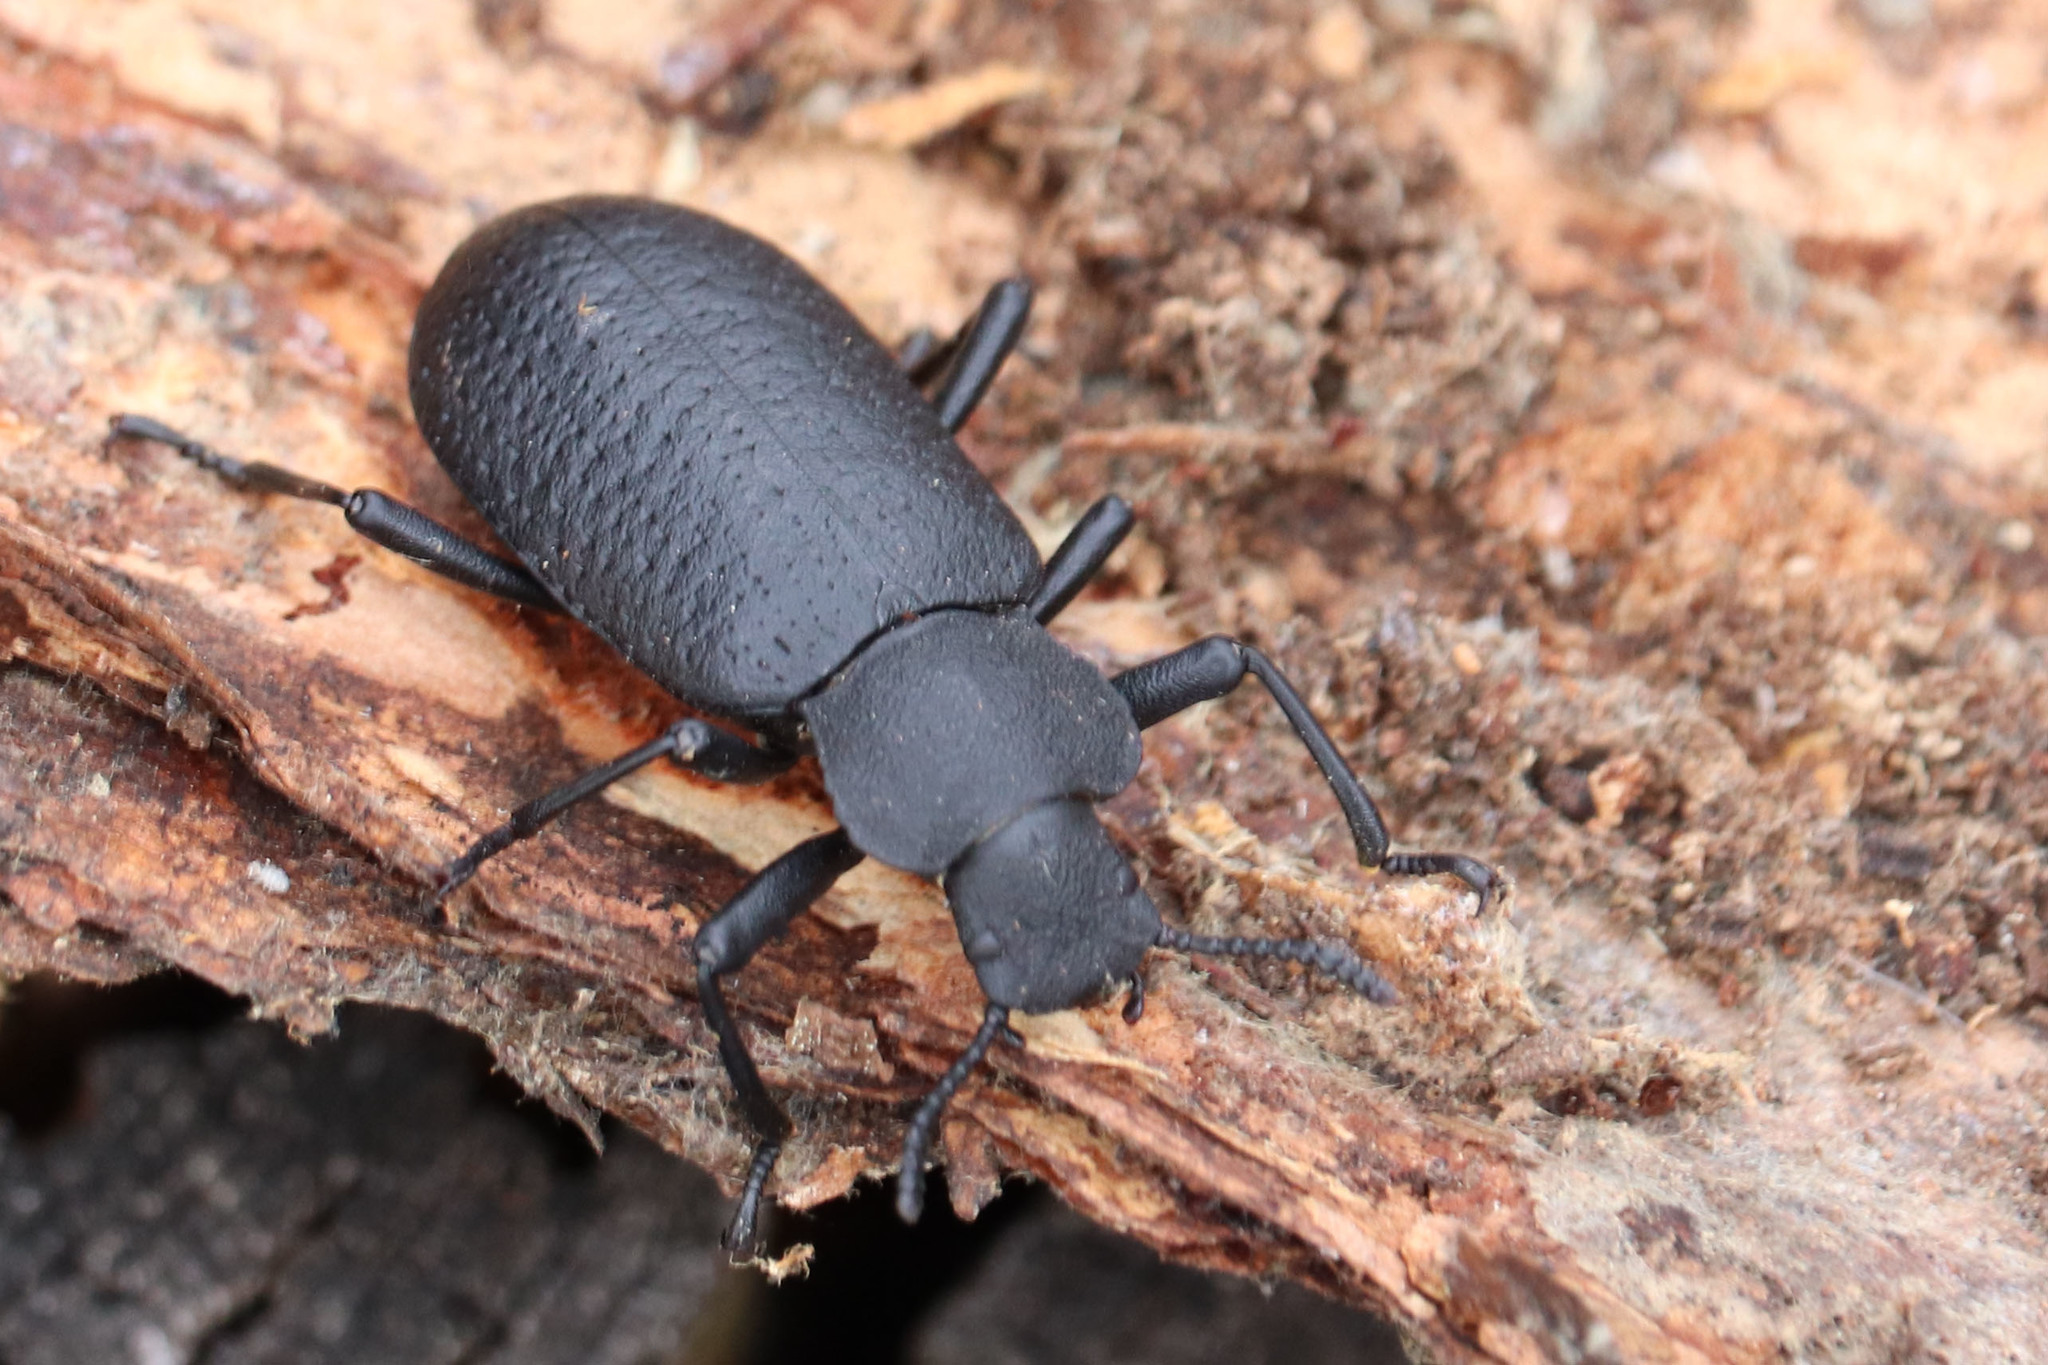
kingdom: Animalia
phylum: Arthropoda
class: Insecta
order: Coleoptera
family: Tenebrionidae
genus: Iphthiminus
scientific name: Iphthiminus serratus
